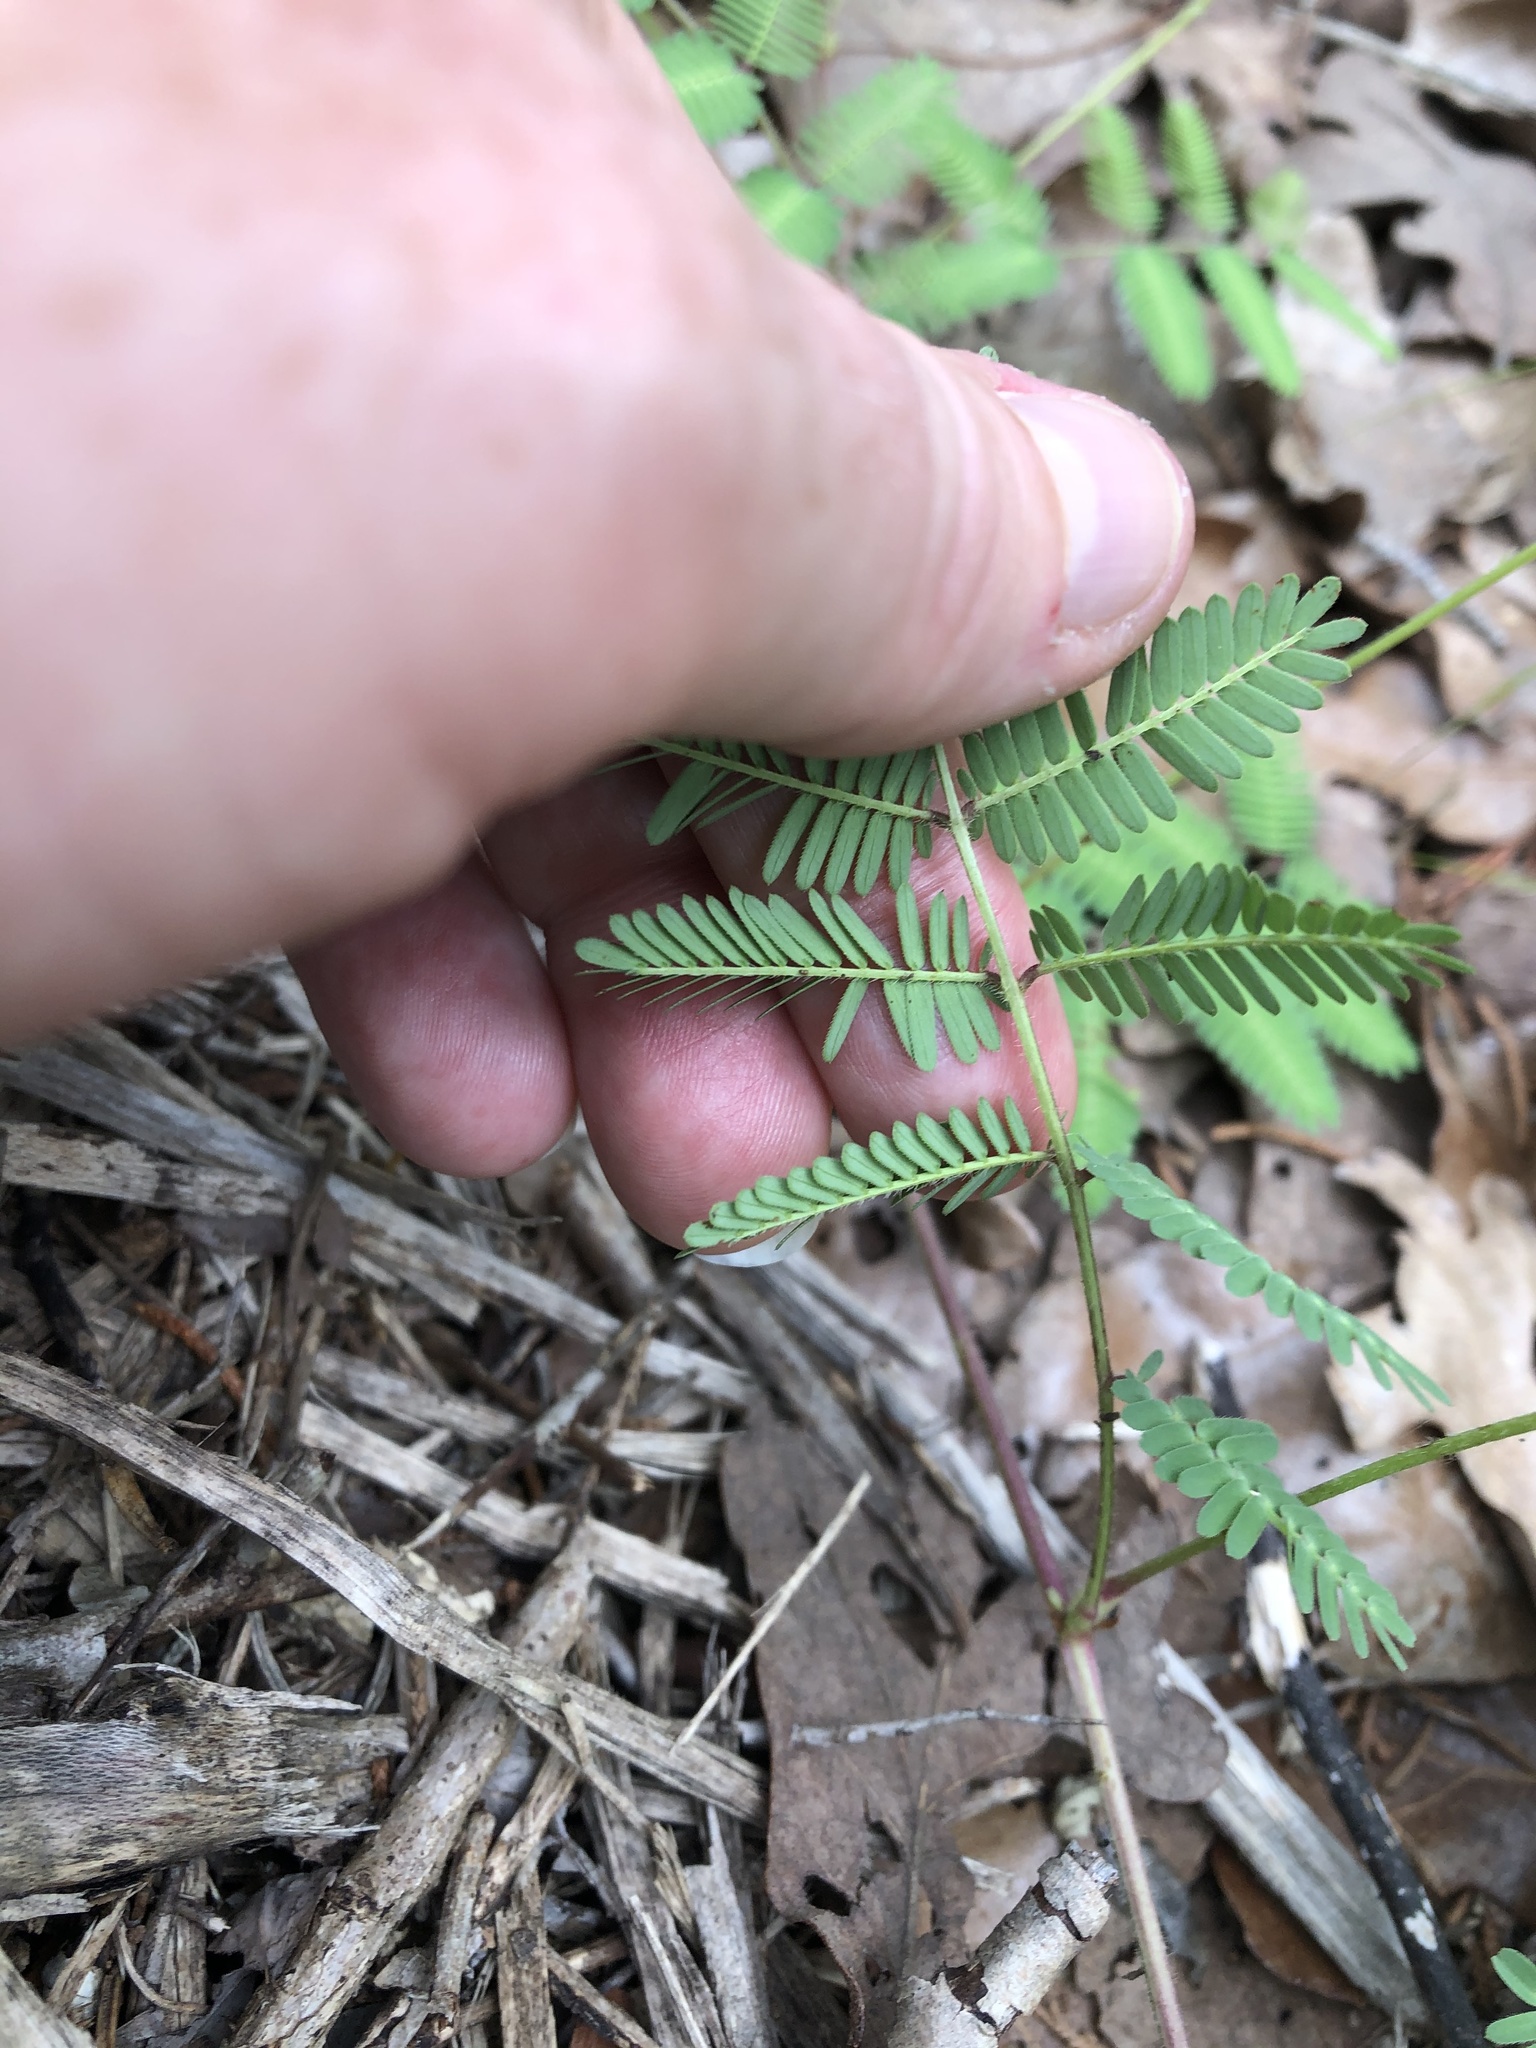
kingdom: Plantae
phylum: Tracheophyta
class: Magnoliopsida
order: Fabales
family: Fabaceae
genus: Neptunia
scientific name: Neptunia lutea
